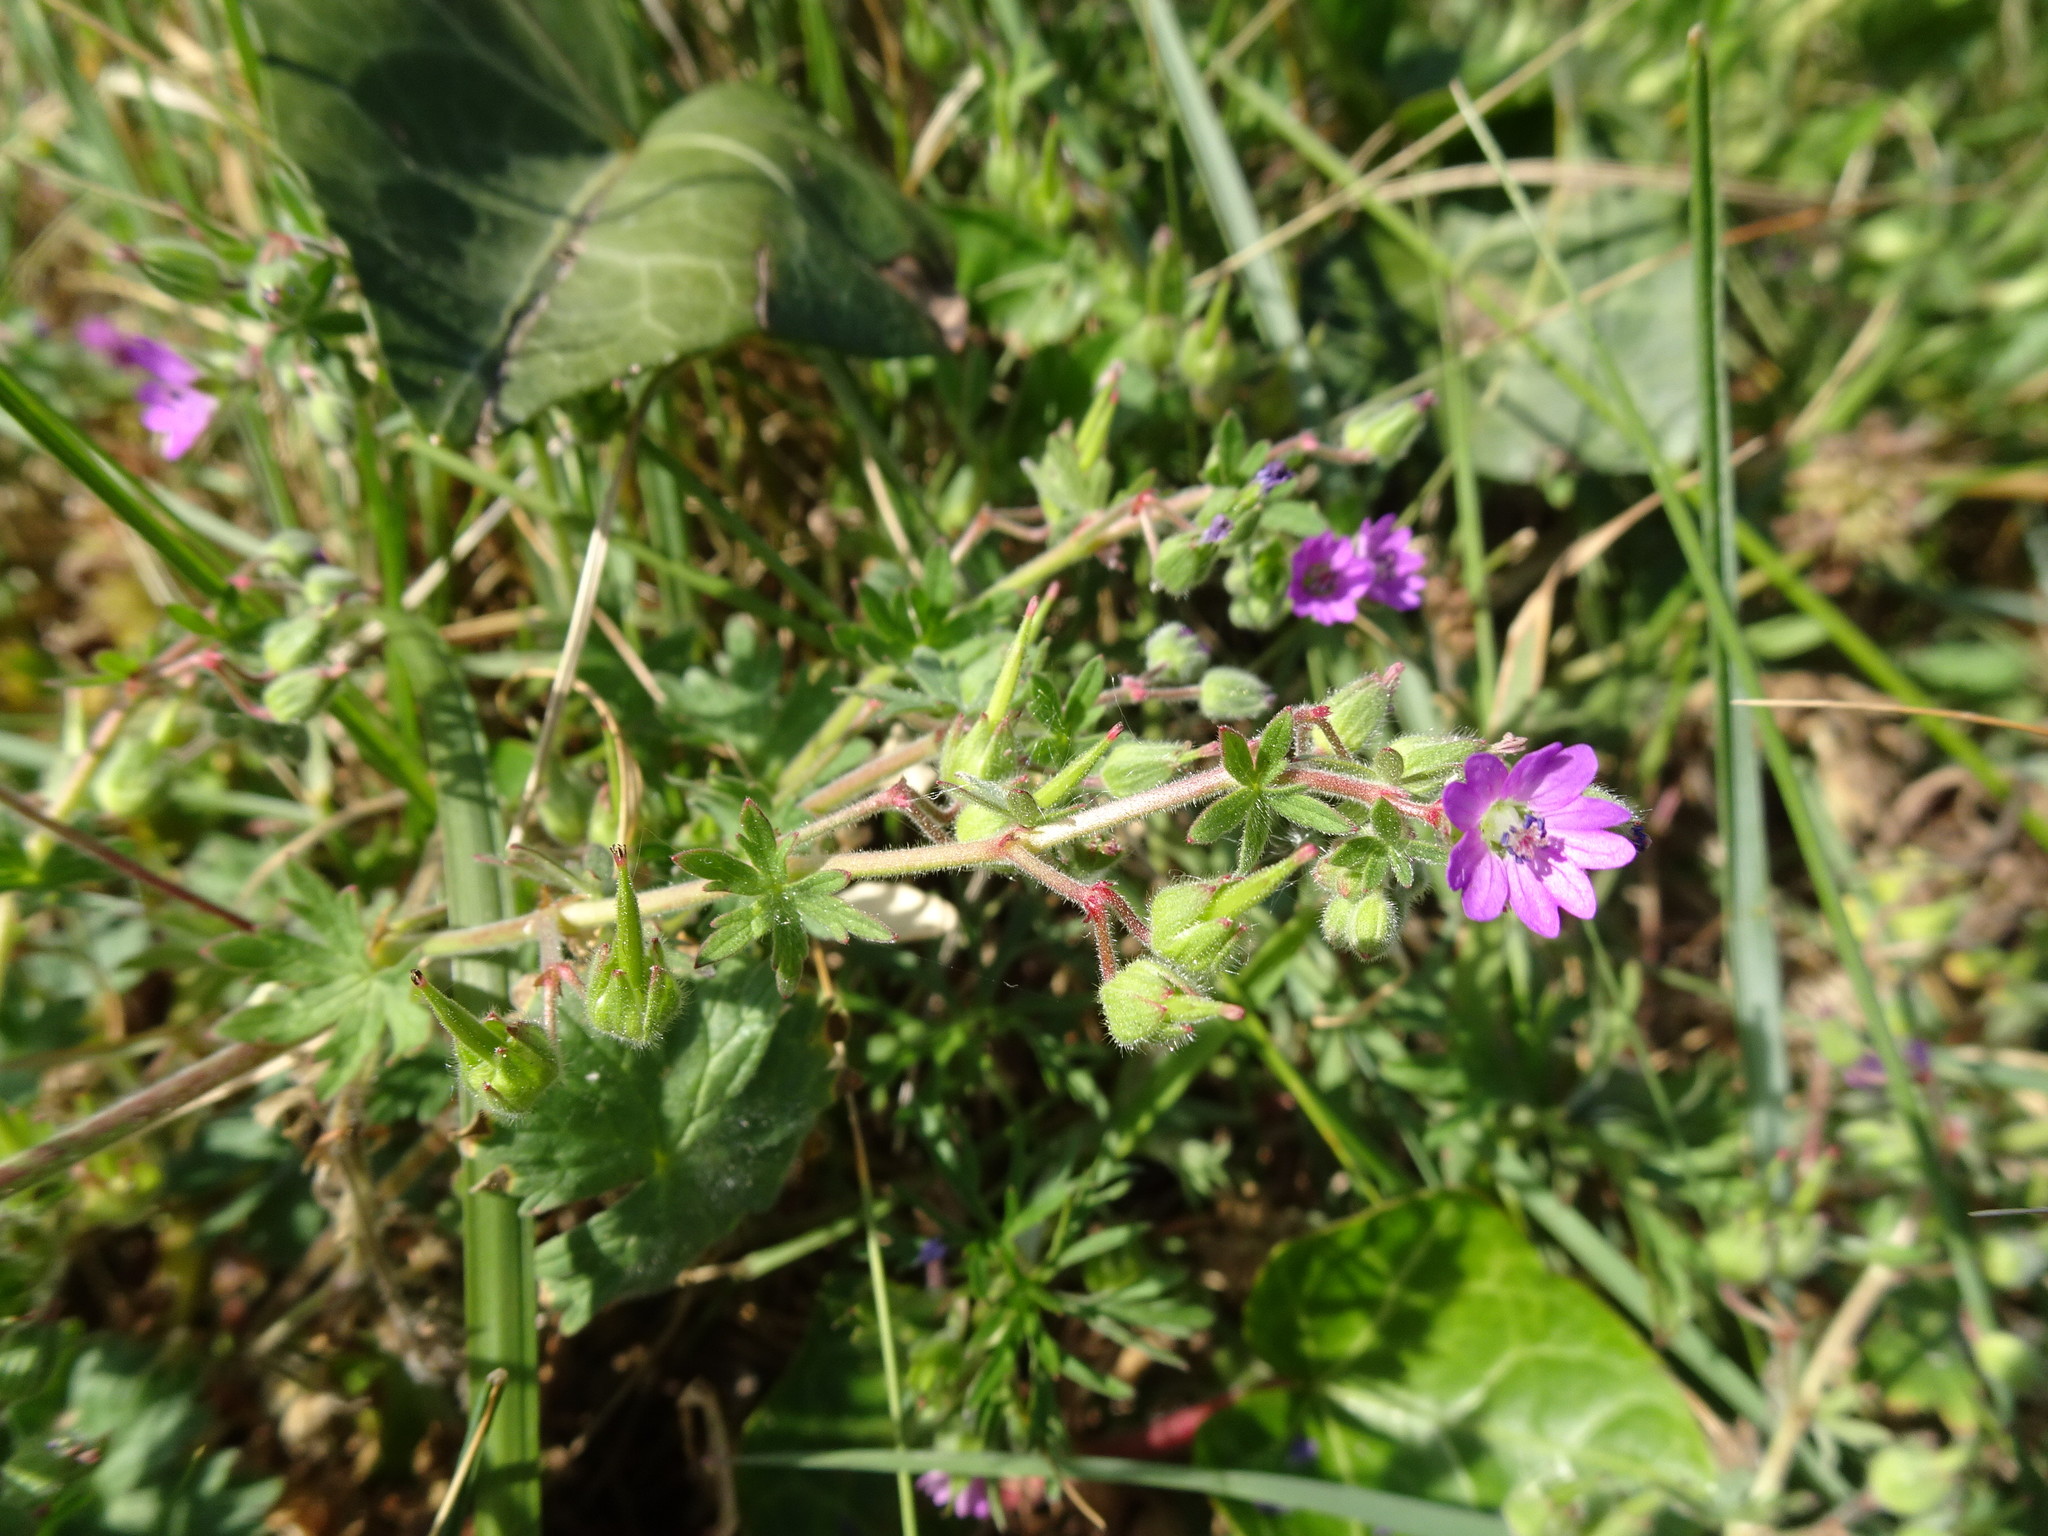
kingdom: Plantae
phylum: Tracheophyta
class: Magnoliopsida
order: Geraniales
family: Geraniaceae
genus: Geranium
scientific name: Geranium molle
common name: Dove's-foot crane's-bill
